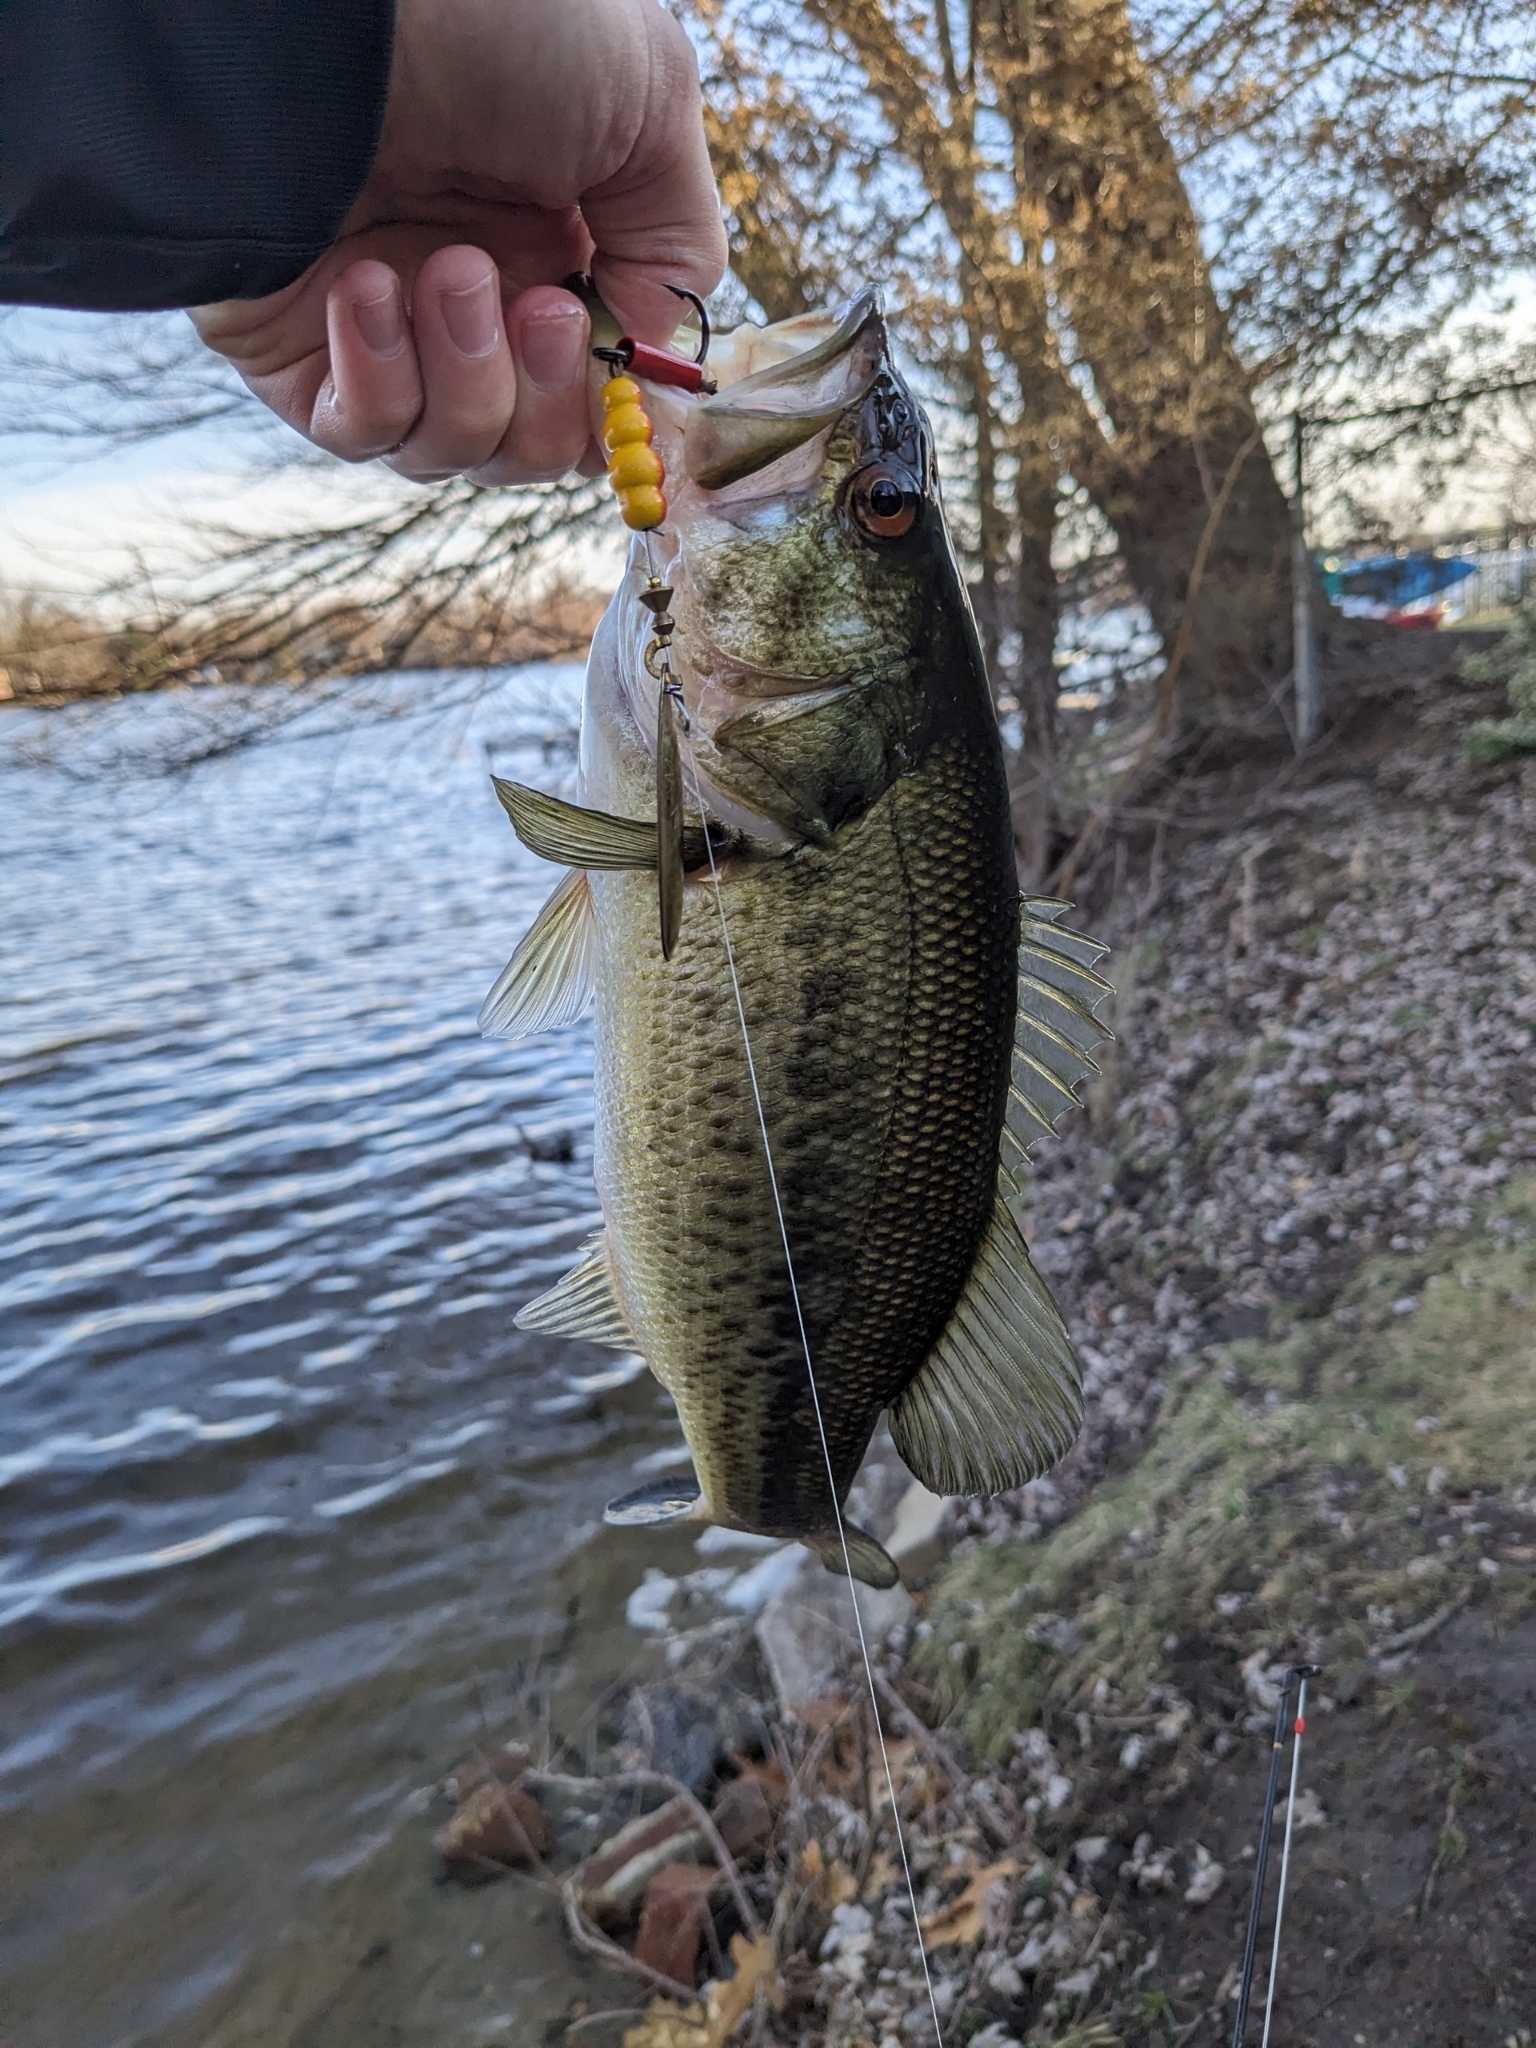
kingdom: Animalia
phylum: Chordata
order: Perciformes
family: Centrarchidae
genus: Micropterus
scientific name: Micropterus
